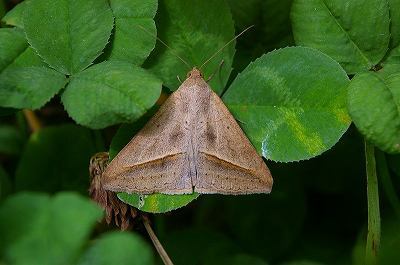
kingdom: Animalia
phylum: Arthropoda
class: Insecta
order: Lepidoptera
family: Erebidae
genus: Mocis
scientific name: Mocis frugalis
